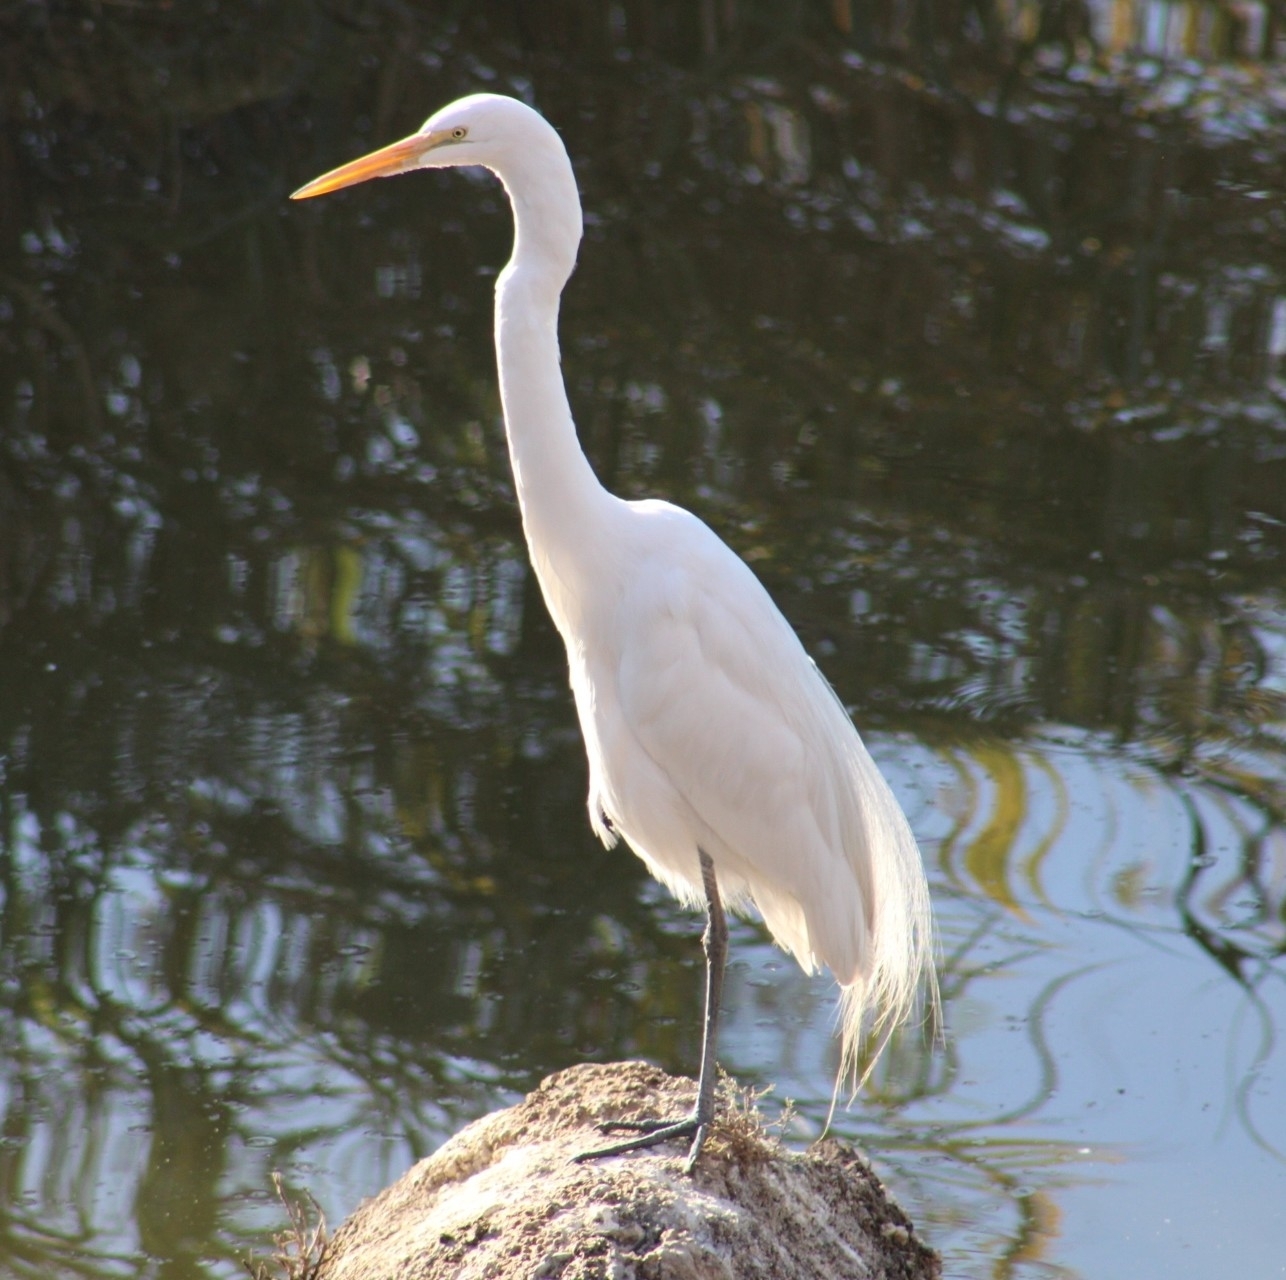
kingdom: Animalia
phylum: Chordata
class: Aves
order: Pelecaniformes
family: Ardeidae
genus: Ardea
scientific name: Ardea alba
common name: Great egret
